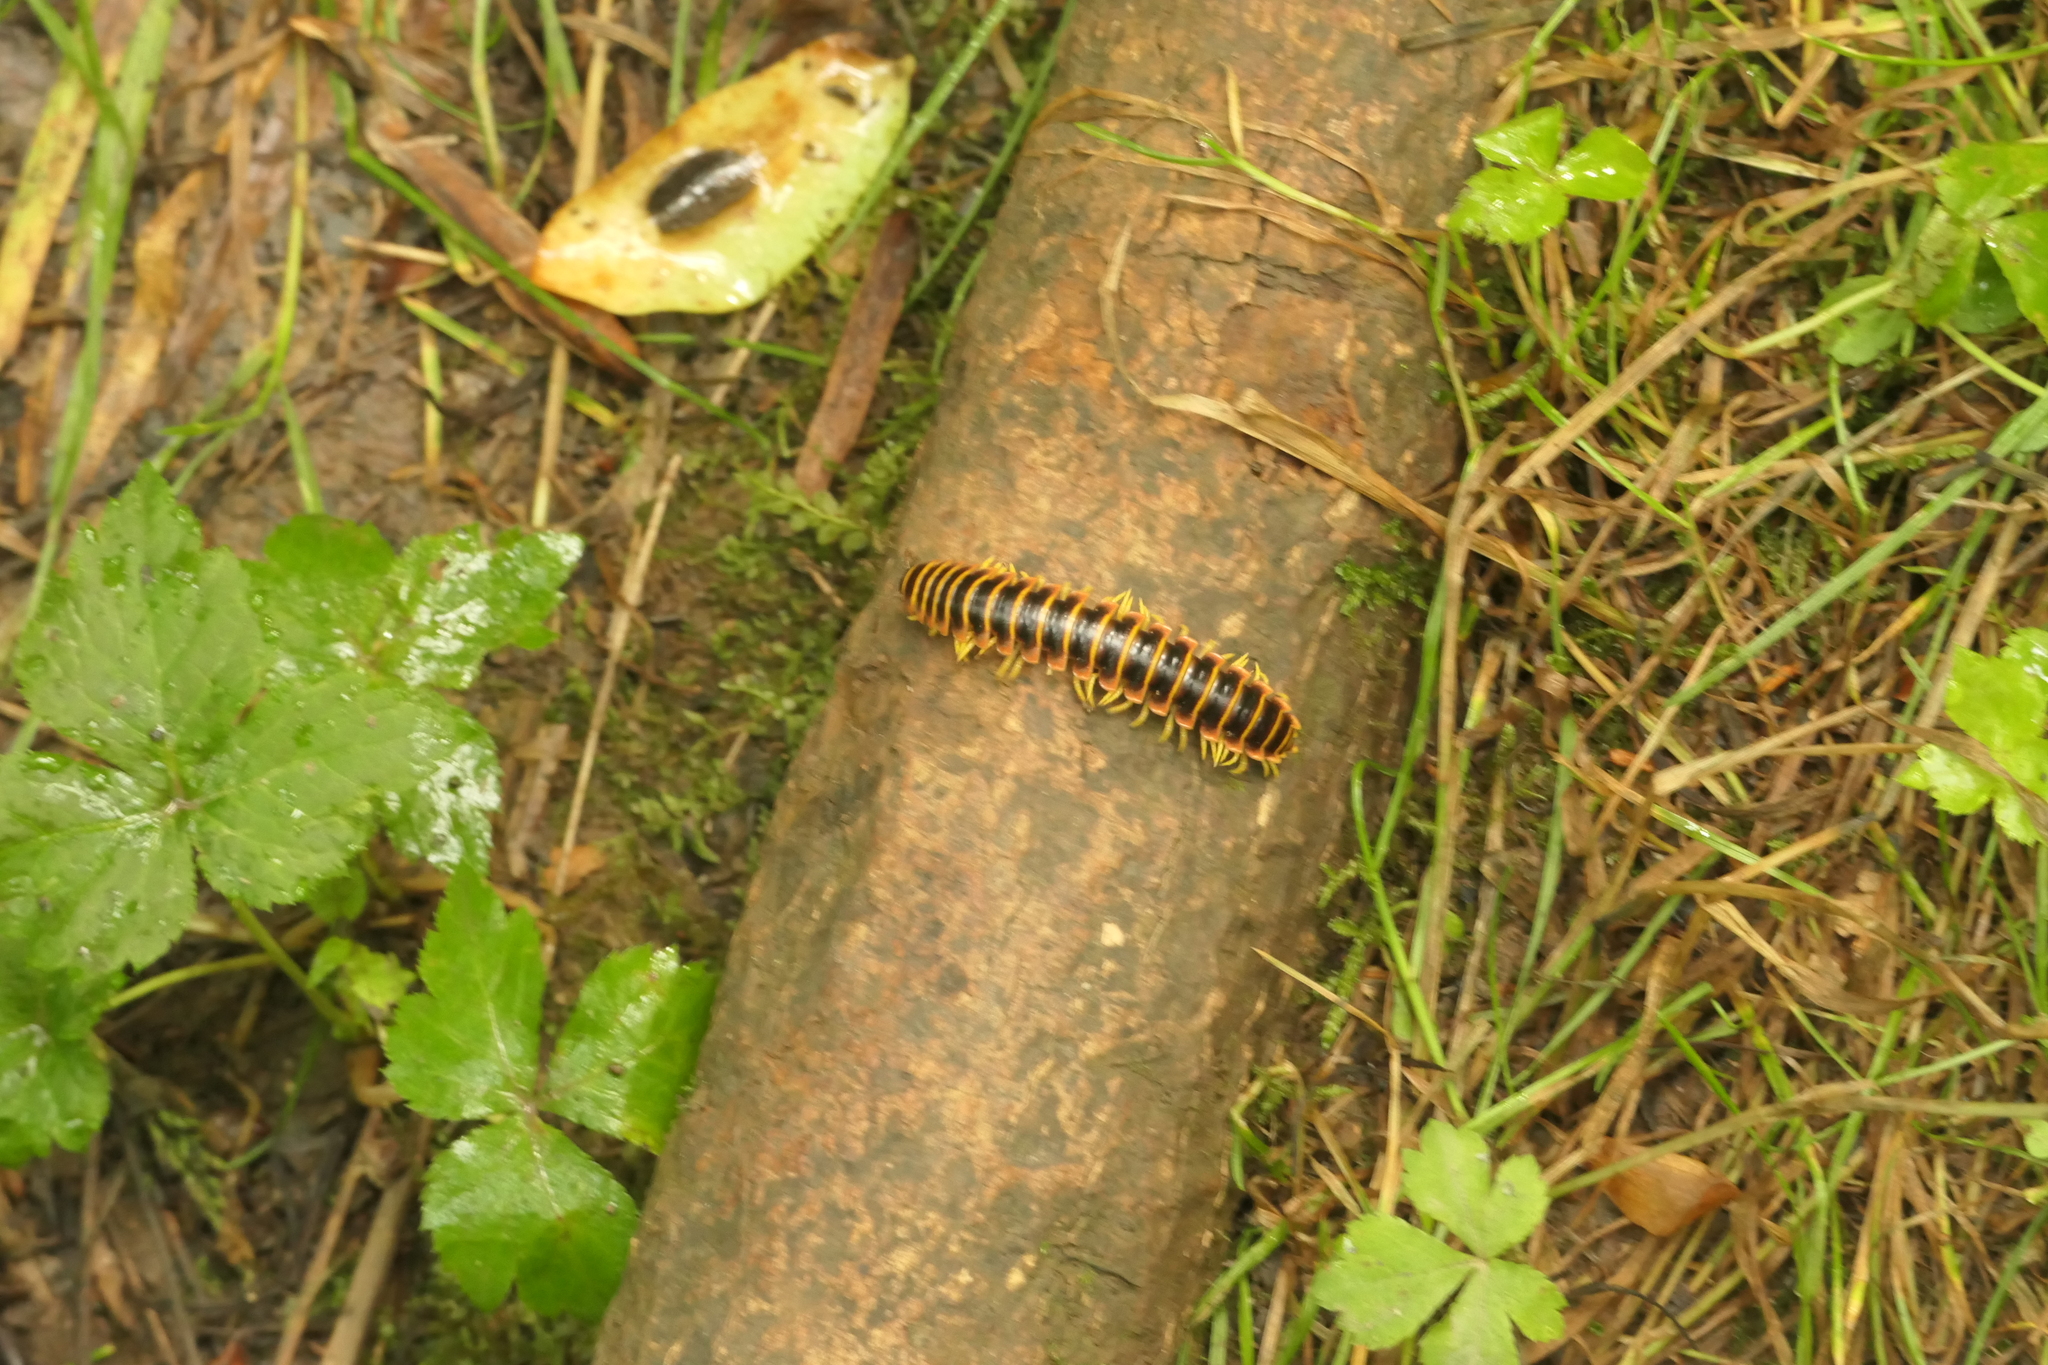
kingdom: Animalia
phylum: Arthropoda
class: Diplopoda
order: Polydesmida
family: Xystodesmidae
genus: Apheloria
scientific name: Apheloria virginiensis
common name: Black-and-gold flat millipede
